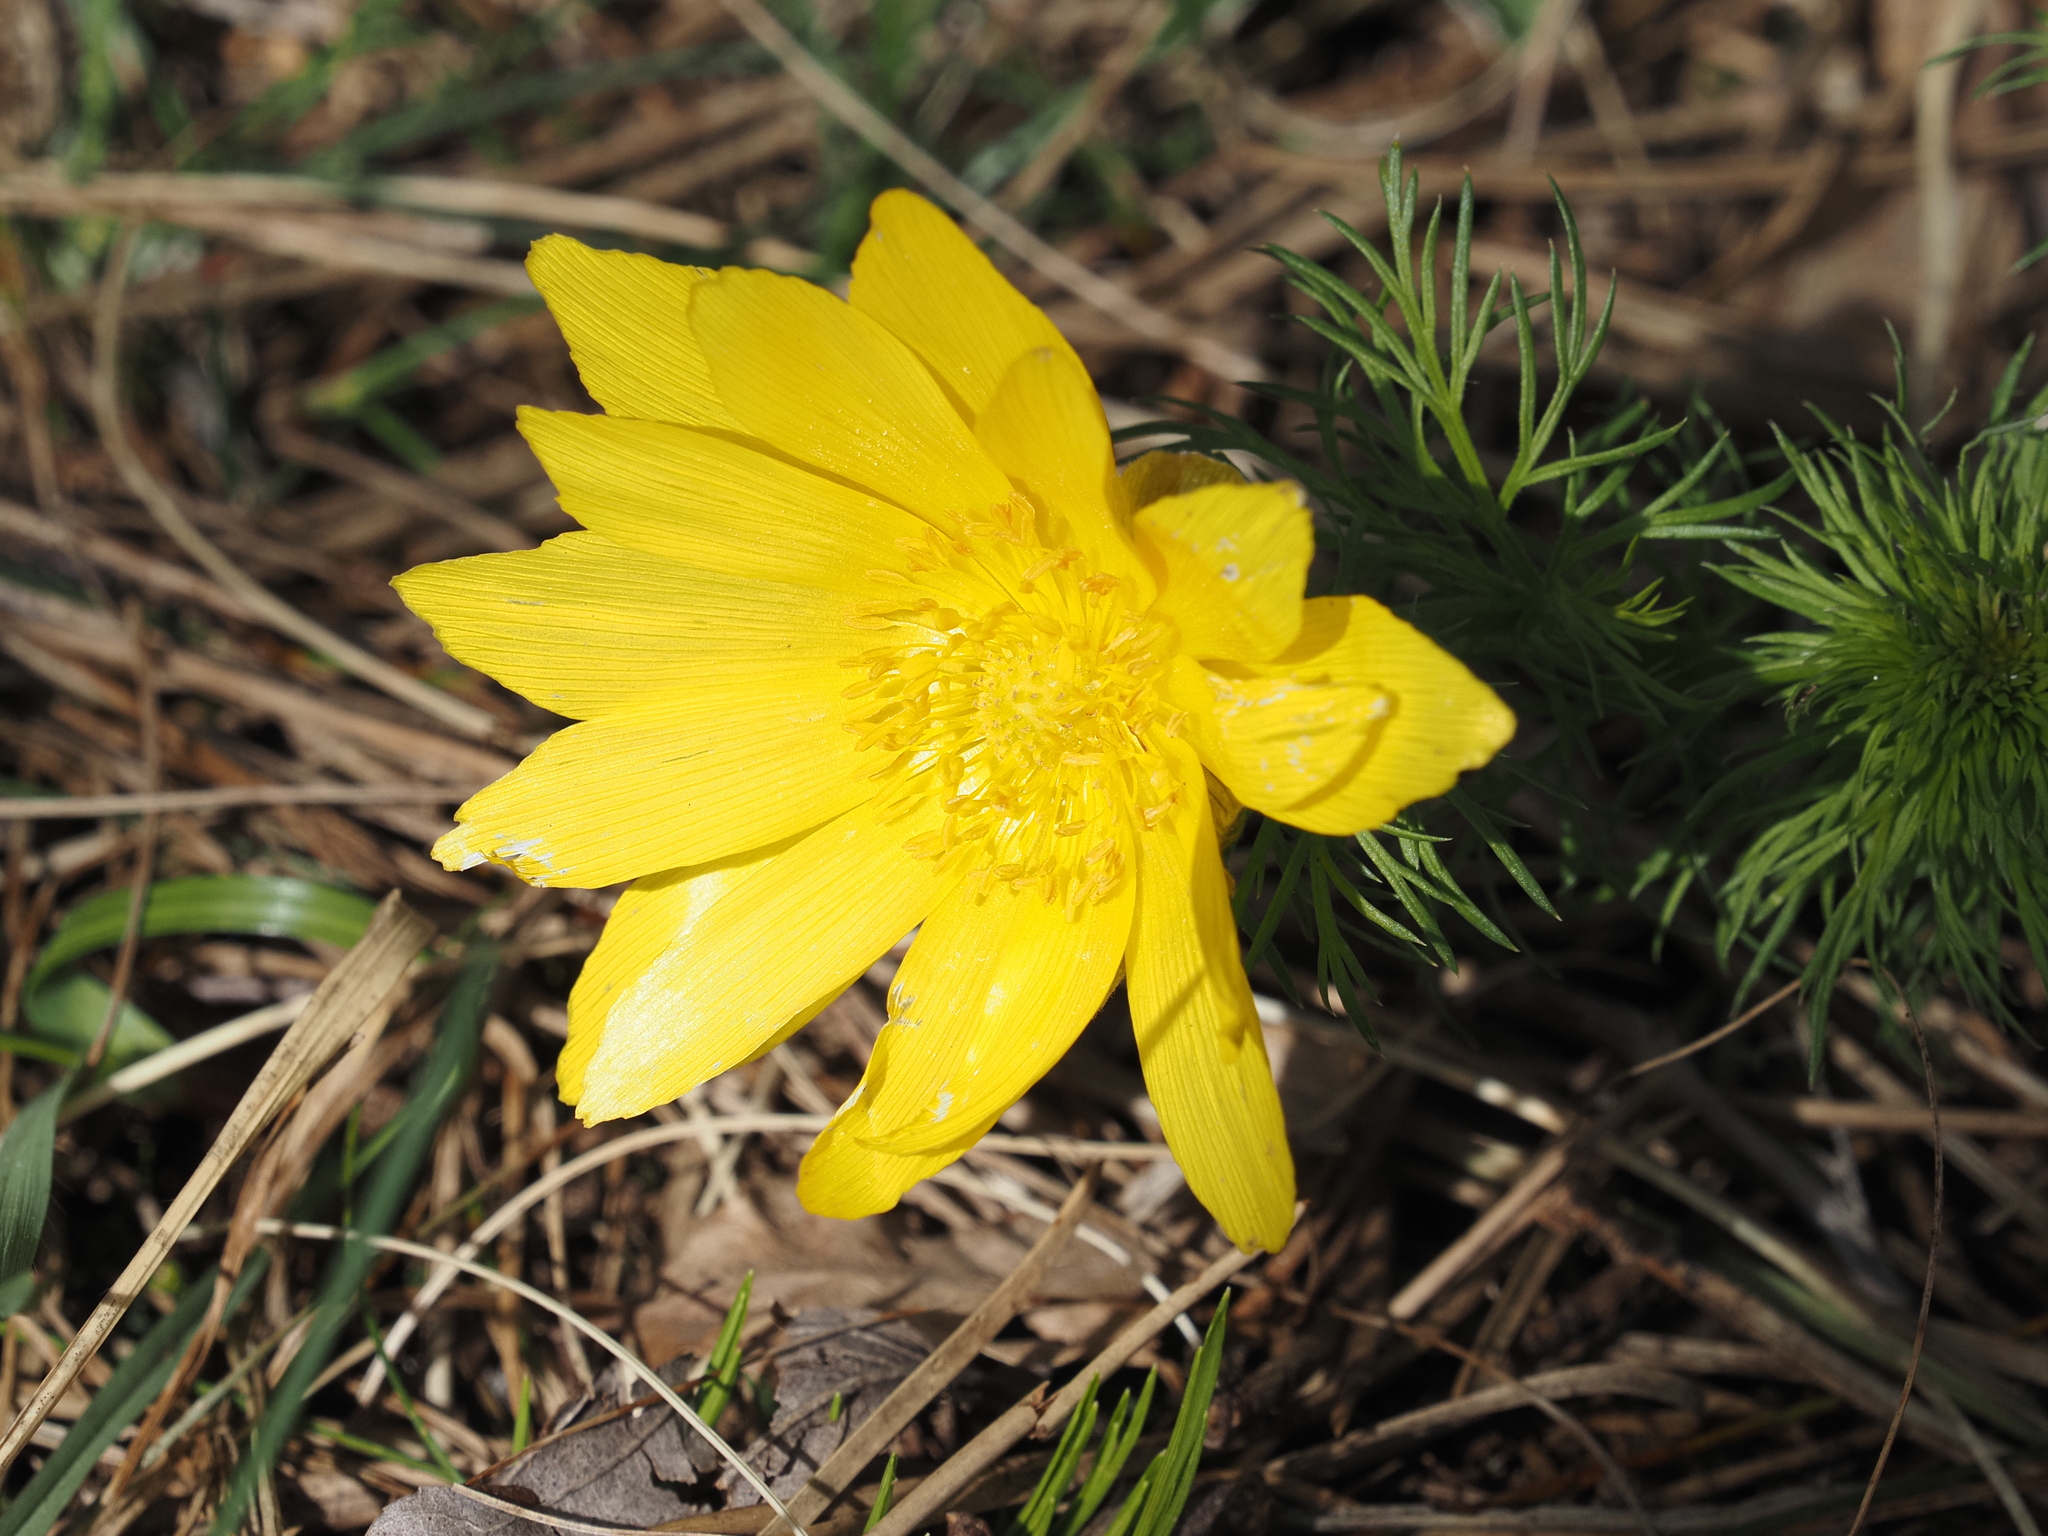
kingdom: Plantae
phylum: Tracheophyta
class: Magnoliopsida
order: Ranunculales
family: Ranunculaceae
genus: Adonis
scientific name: Adonis vernalis
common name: Yellow pheasants-eye
